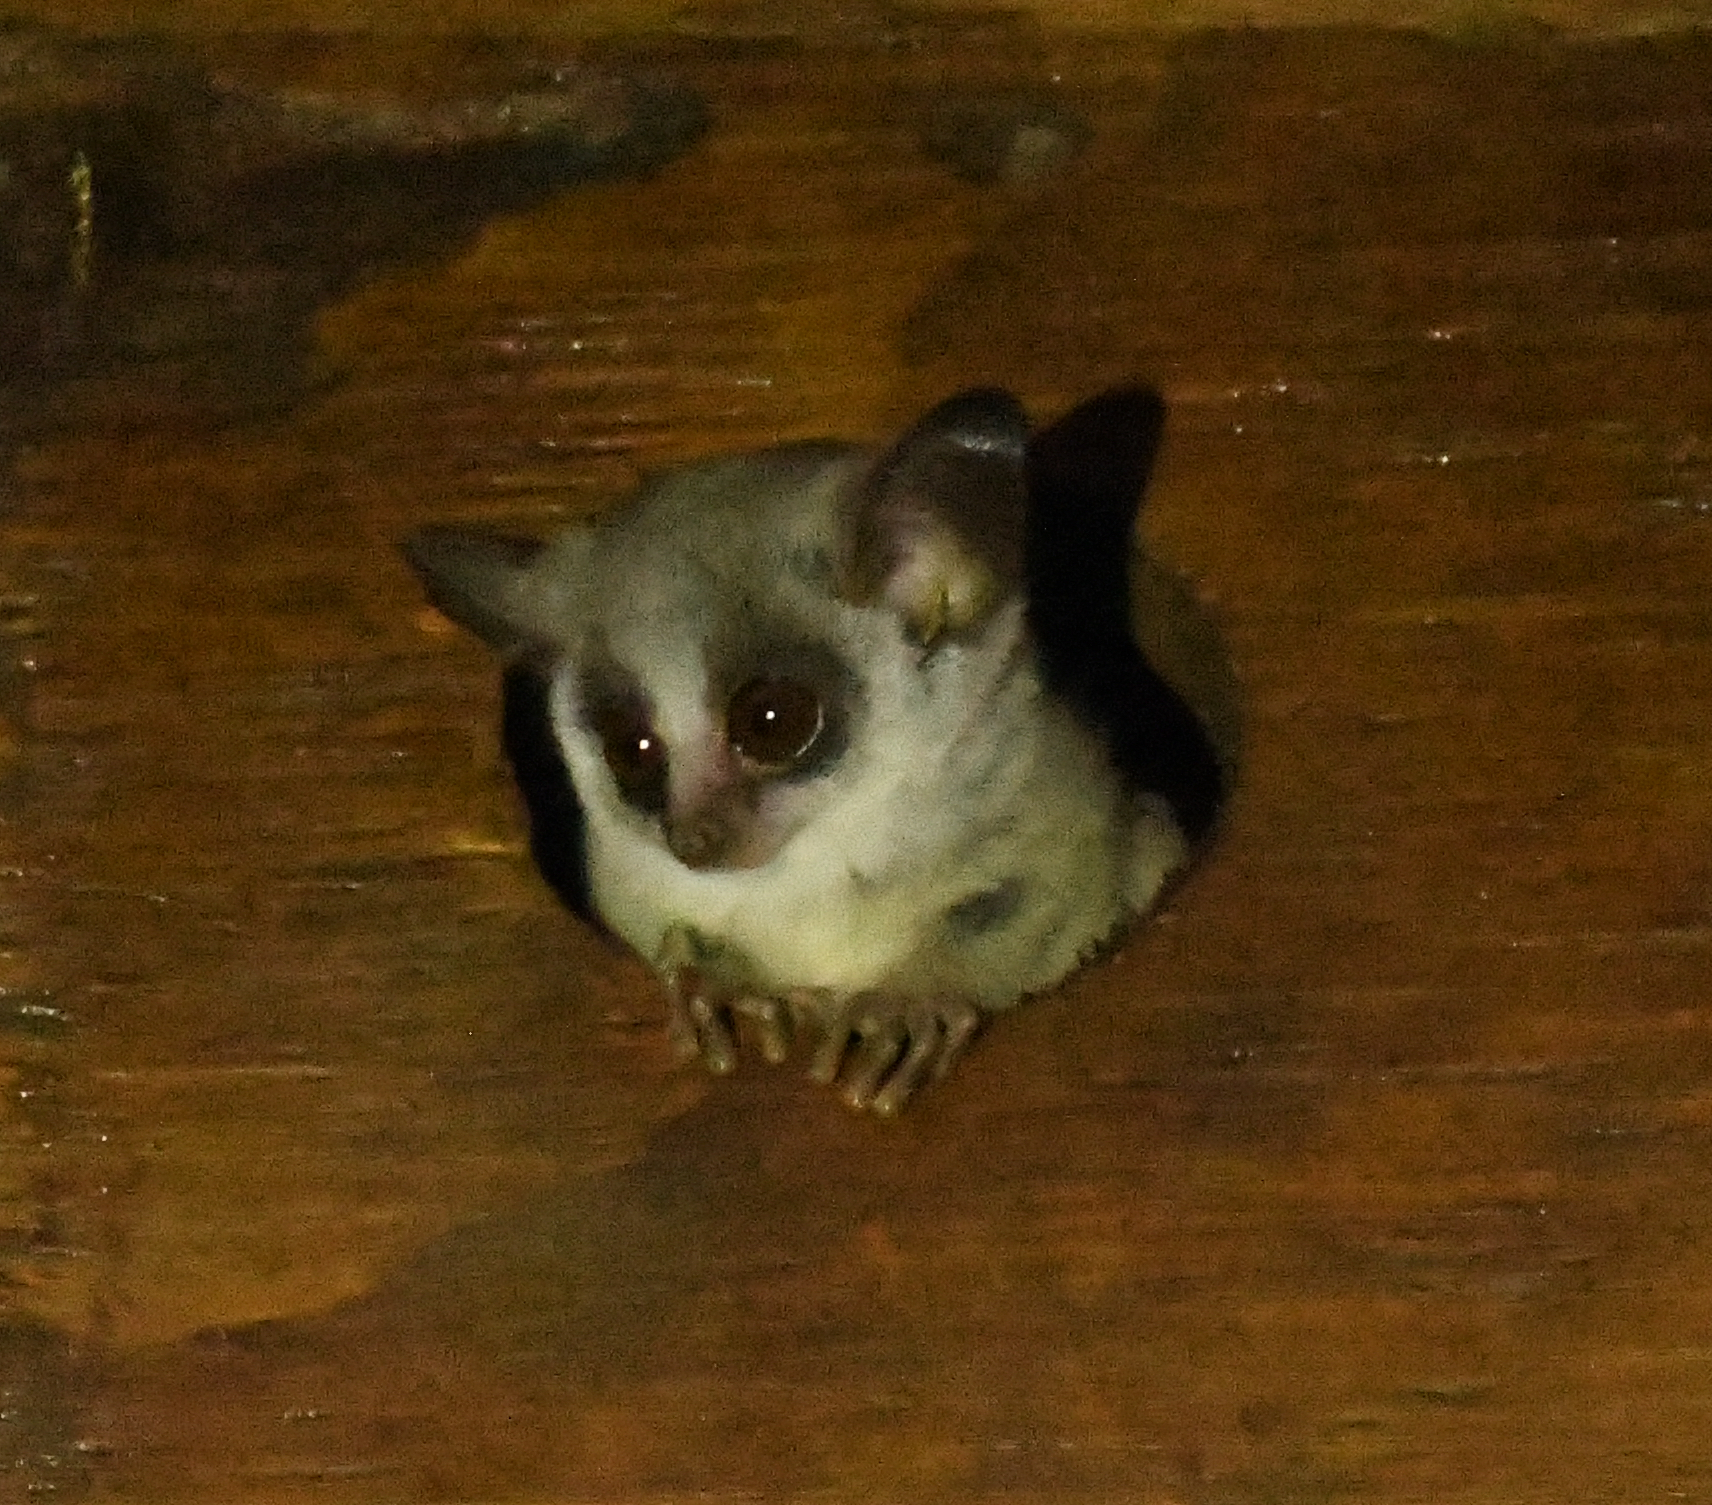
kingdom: Animalia
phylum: Chordata
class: Mammalia
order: Primates
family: Galagidae
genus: Galago
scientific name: Galago moholi
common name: Moholi bushbaby
